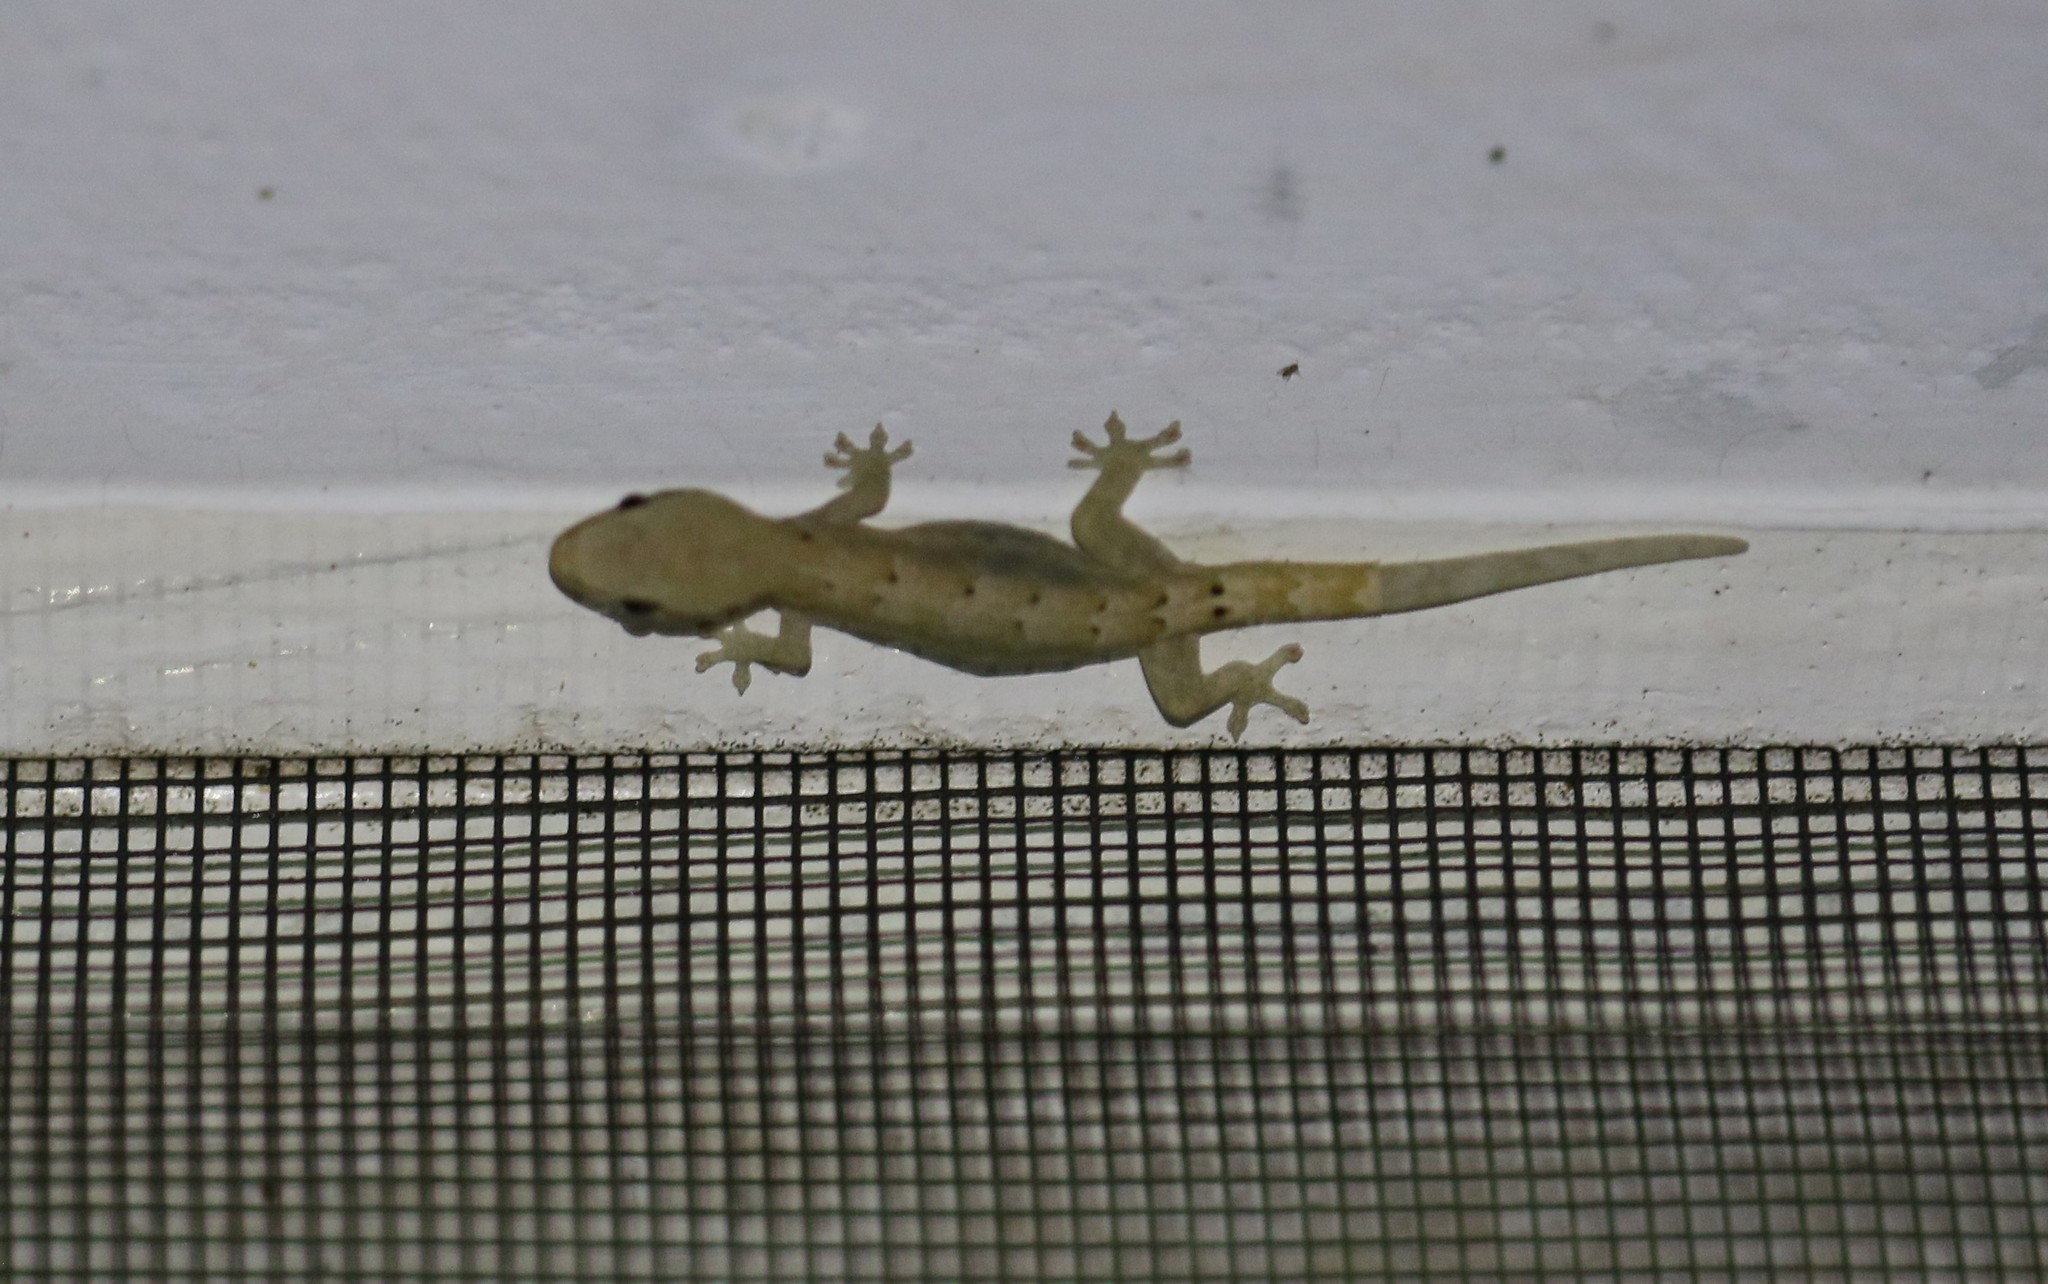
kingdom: Animalia
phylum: Chordata
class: Squamata
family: Gekkonidae
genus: Lepidodactylus
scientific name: Lepidodactylus lugubris
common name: Mourning gecko
